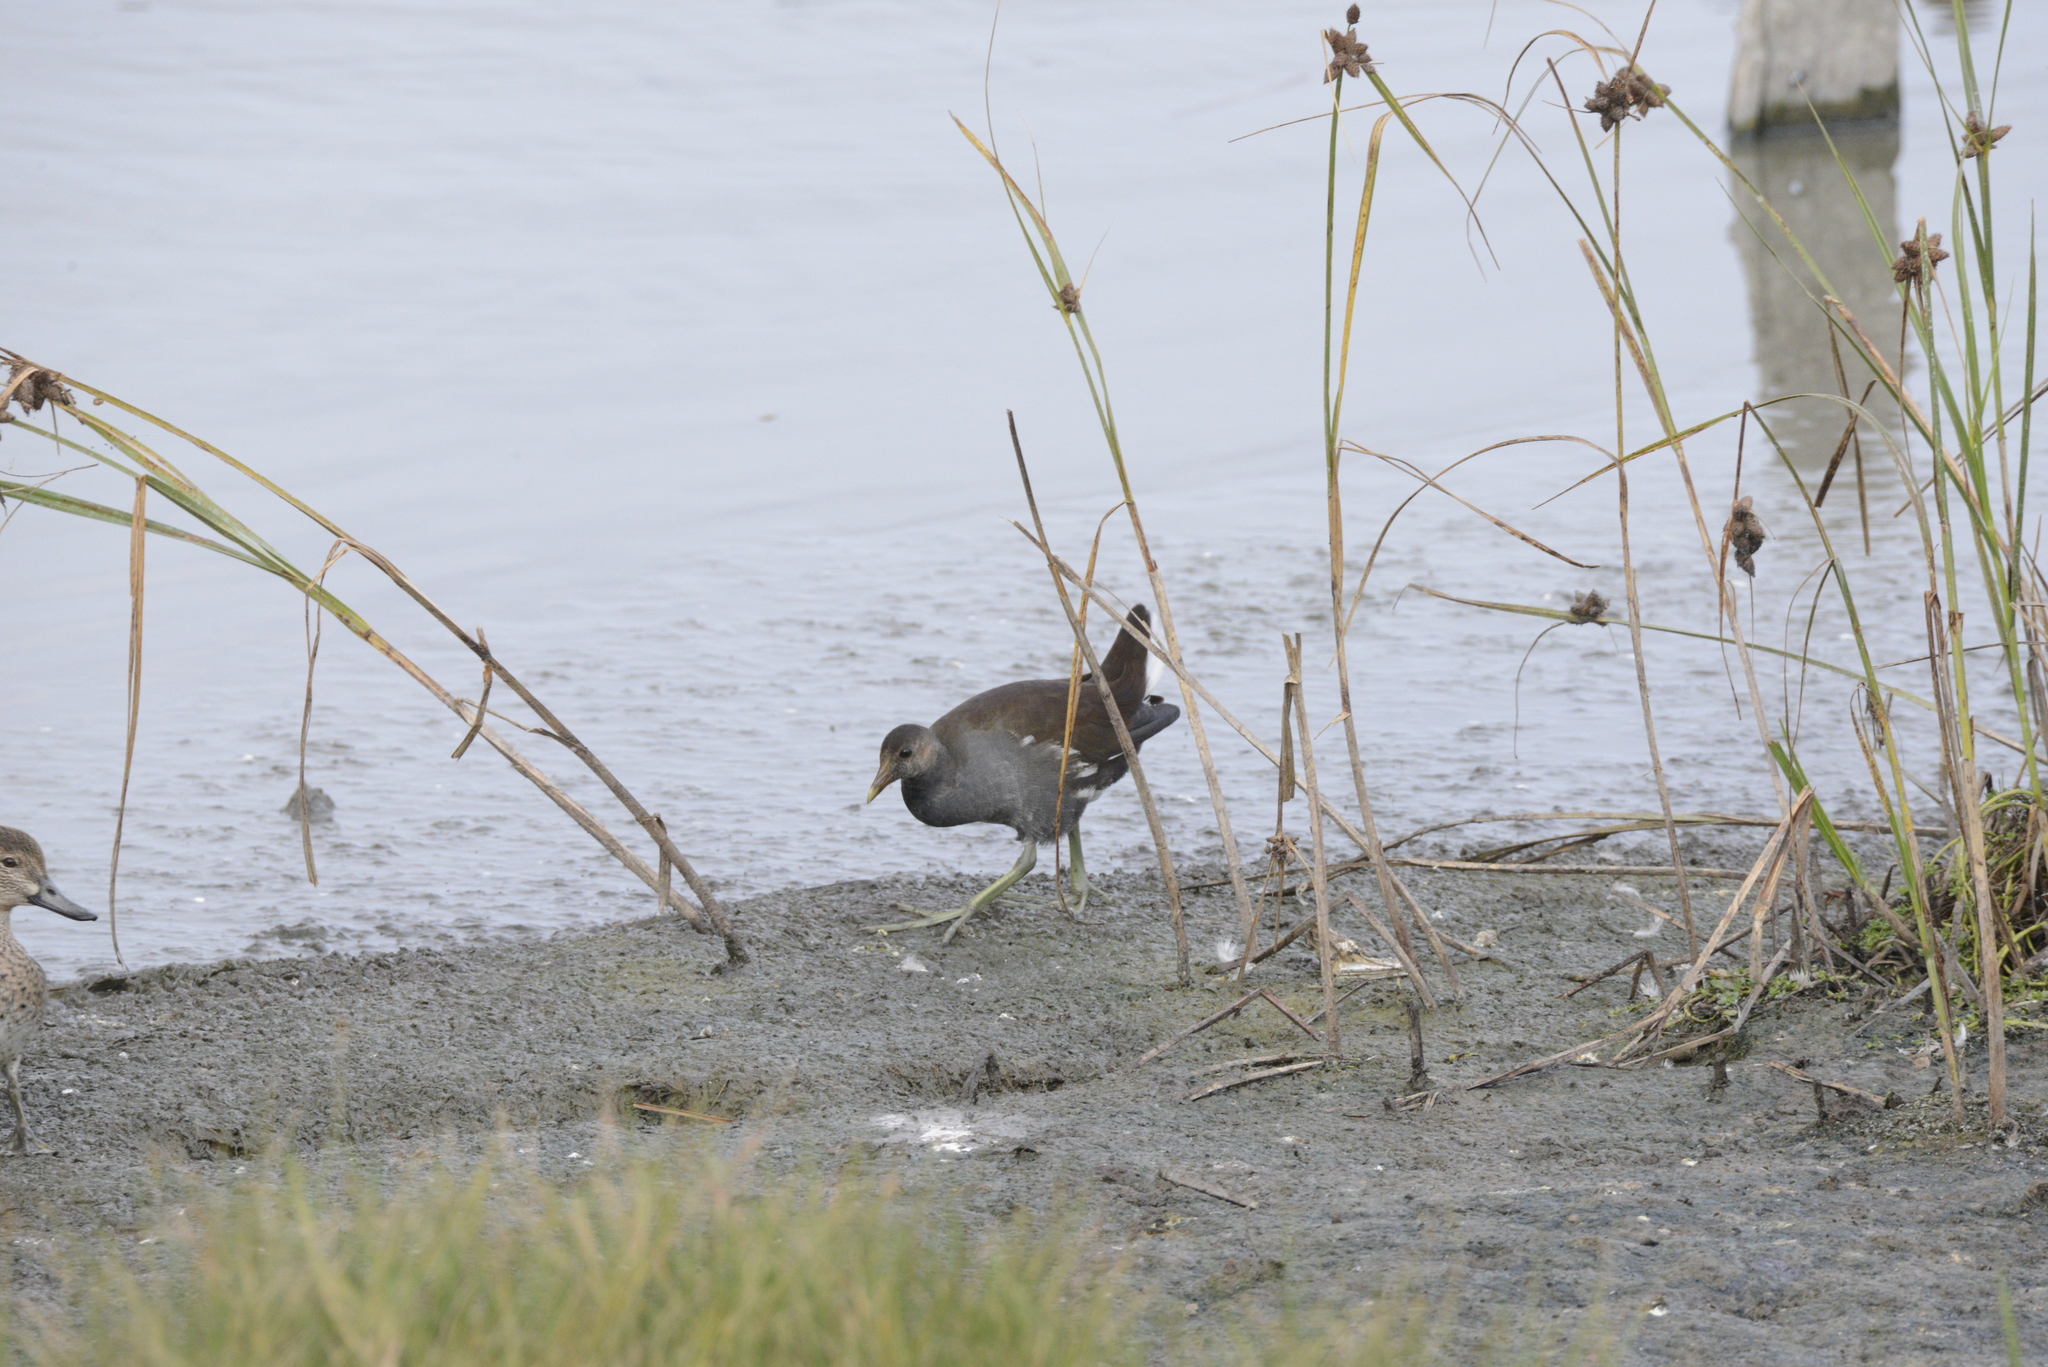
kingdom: Animalia
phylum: Chordata
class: Aves
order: Gruiformes
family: Rallidae
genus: Gallinula
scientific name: Gallinula chloropus
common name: Common moorhen
